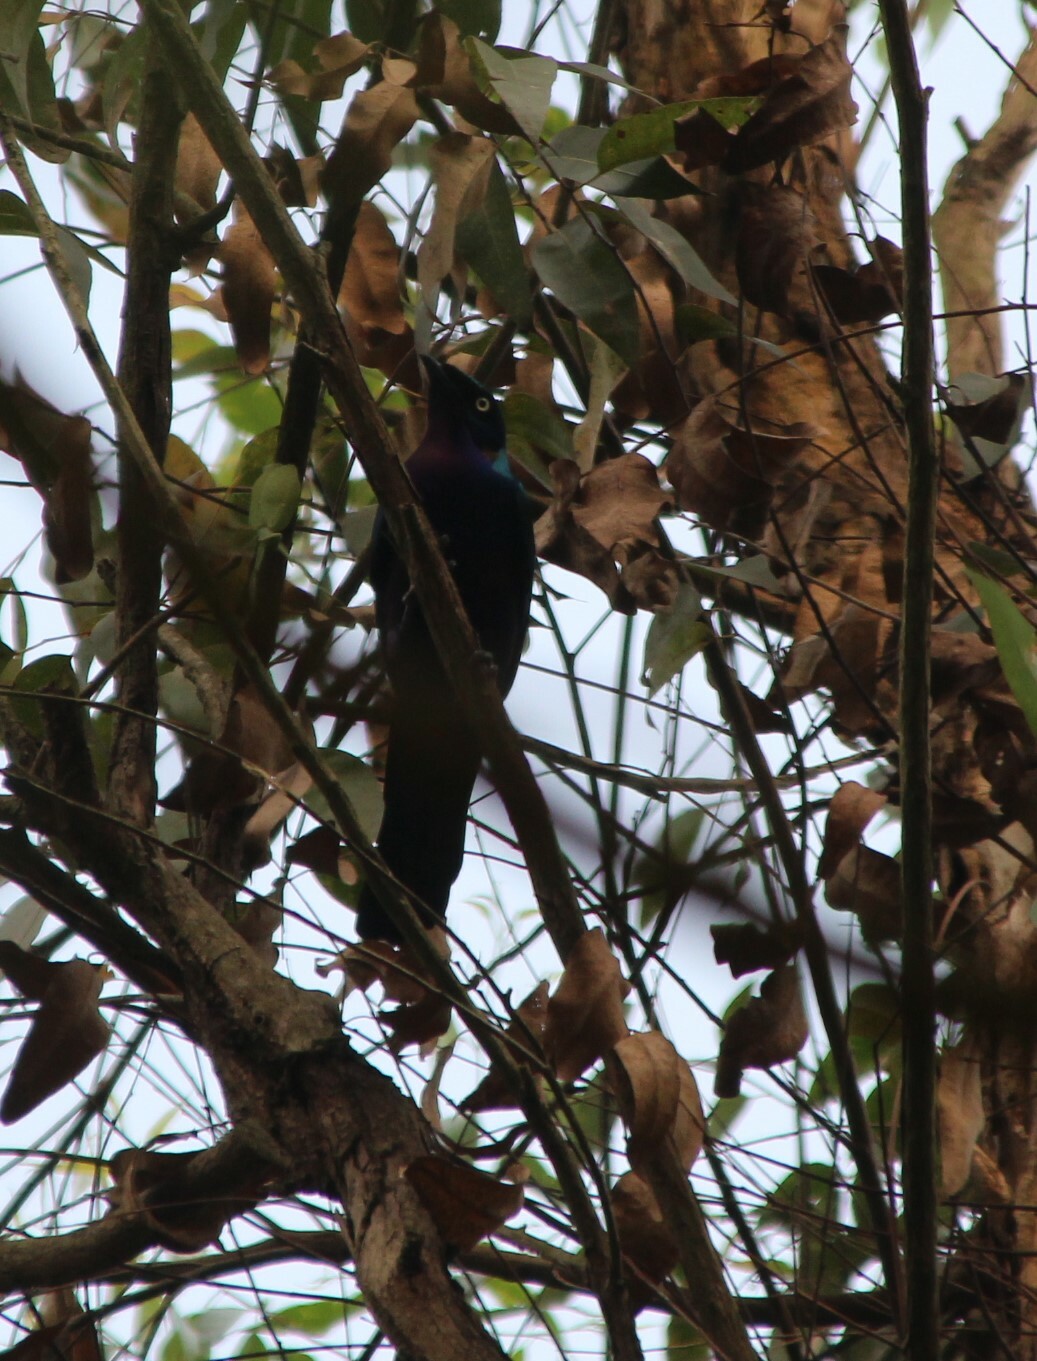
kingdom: Animalia
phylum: Chordata
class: Aves
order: Passeriformes
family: Sturnidae
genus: Lamprotornis
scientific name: Lamprotornis splendidus
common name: Splendid starling
